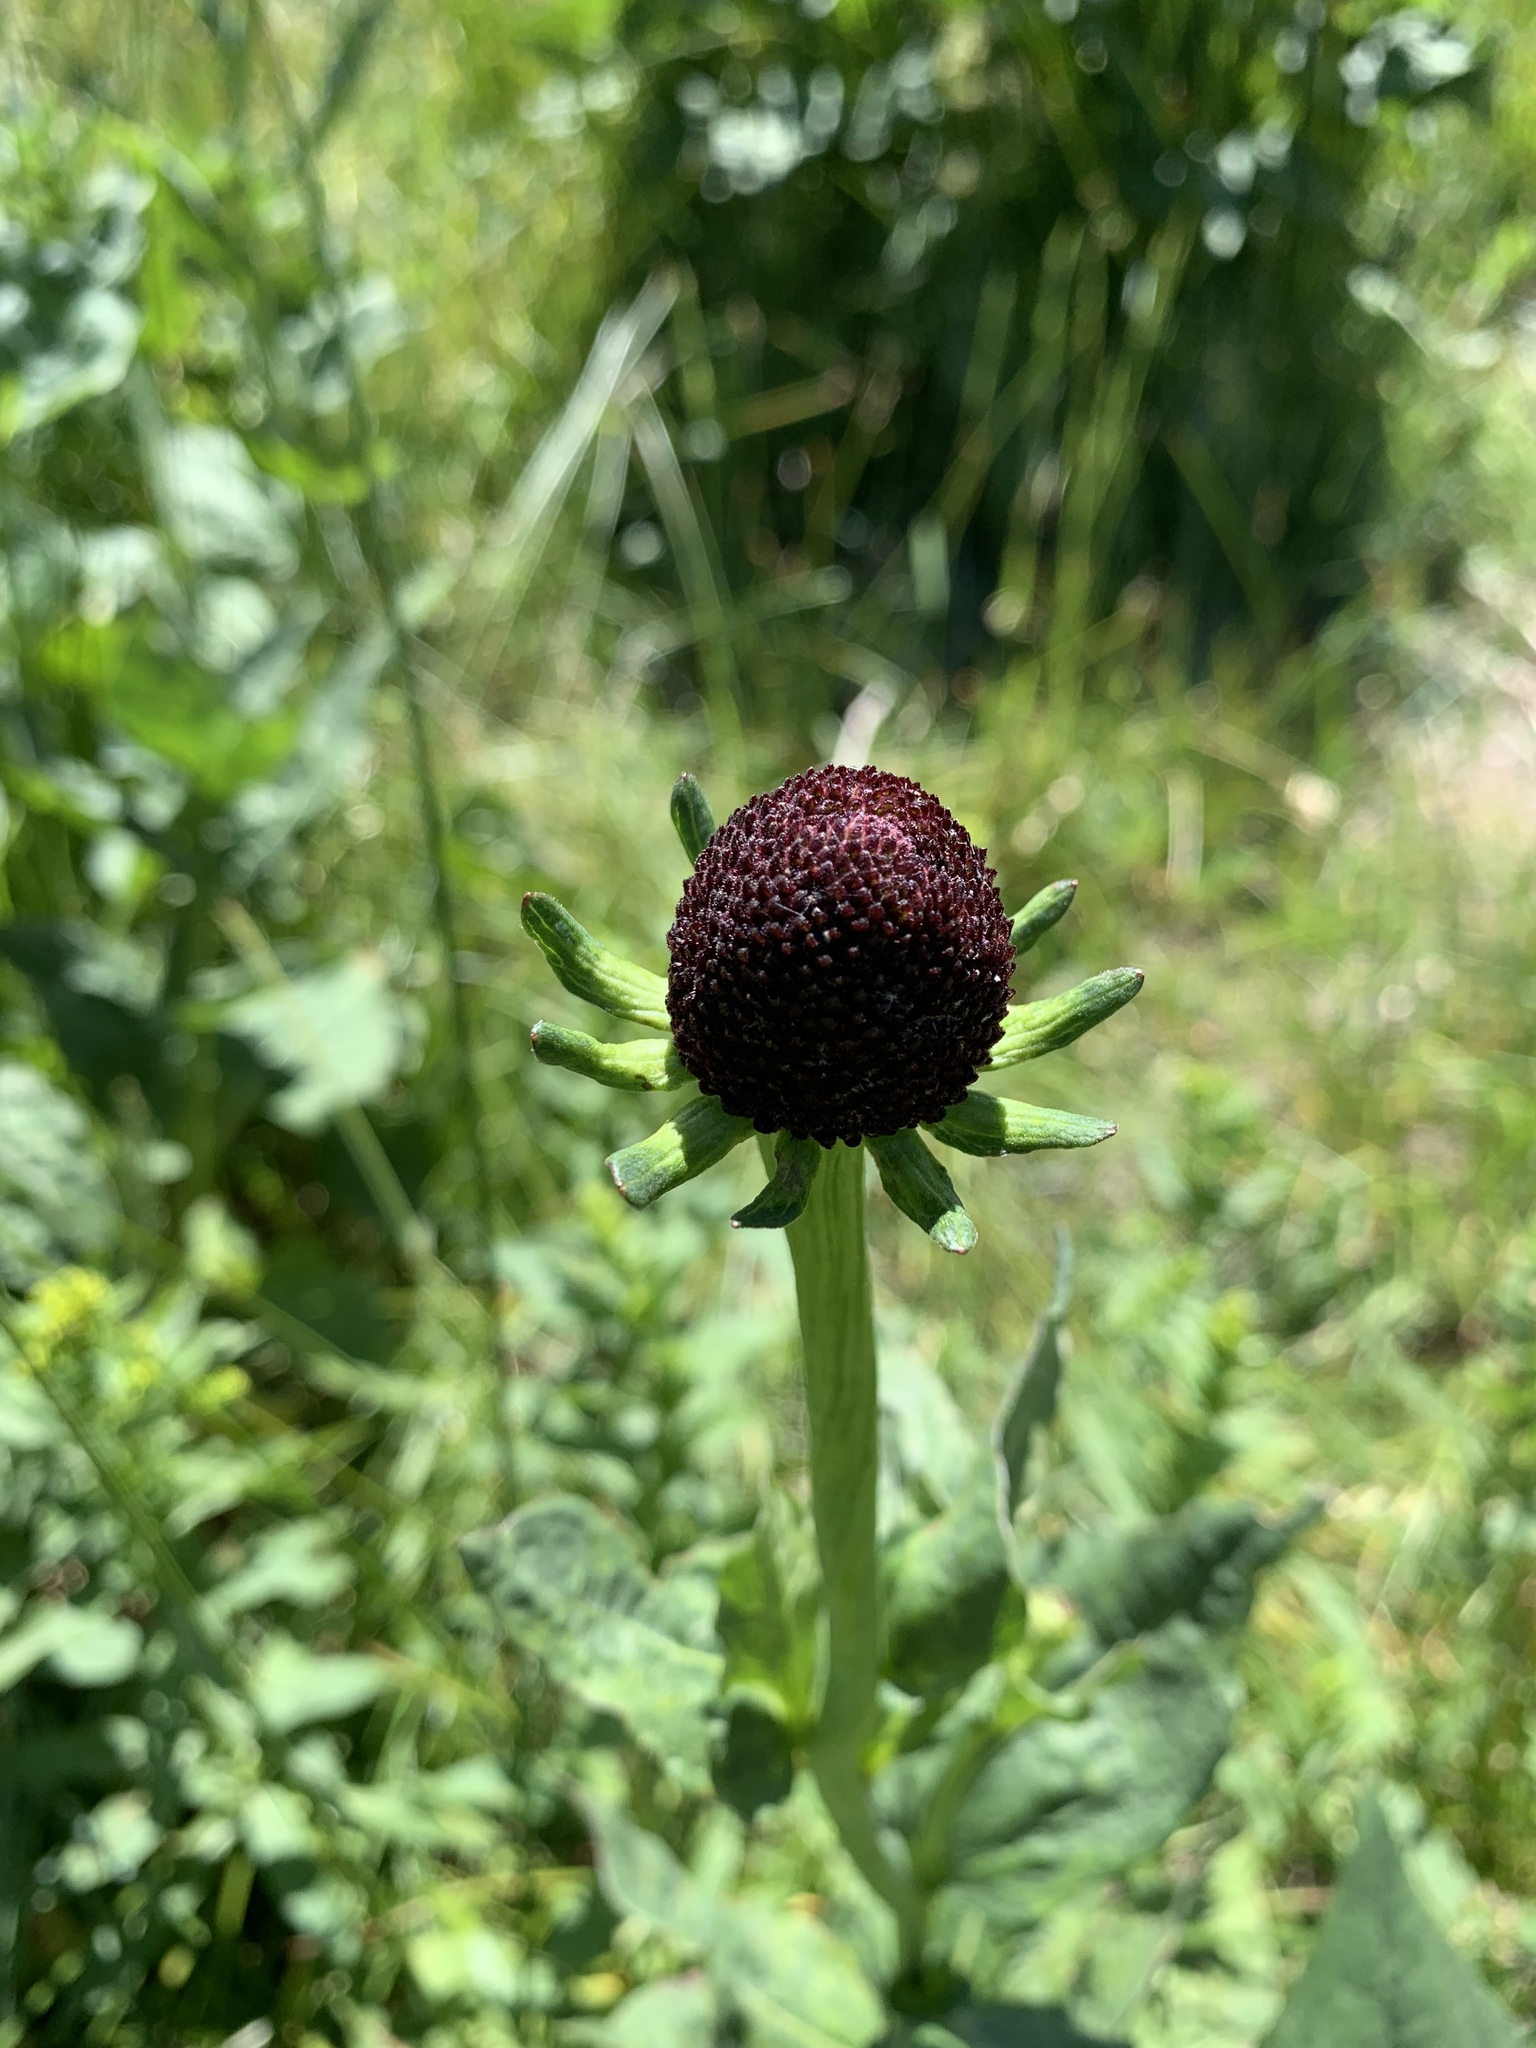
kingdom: Plantae
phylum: Tracheophyta
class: Magnoliopsida
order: Asterales
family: Asteraceae
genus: Rudbeckia
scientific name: Rudbeckia occidentalis
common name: Western coneflower
